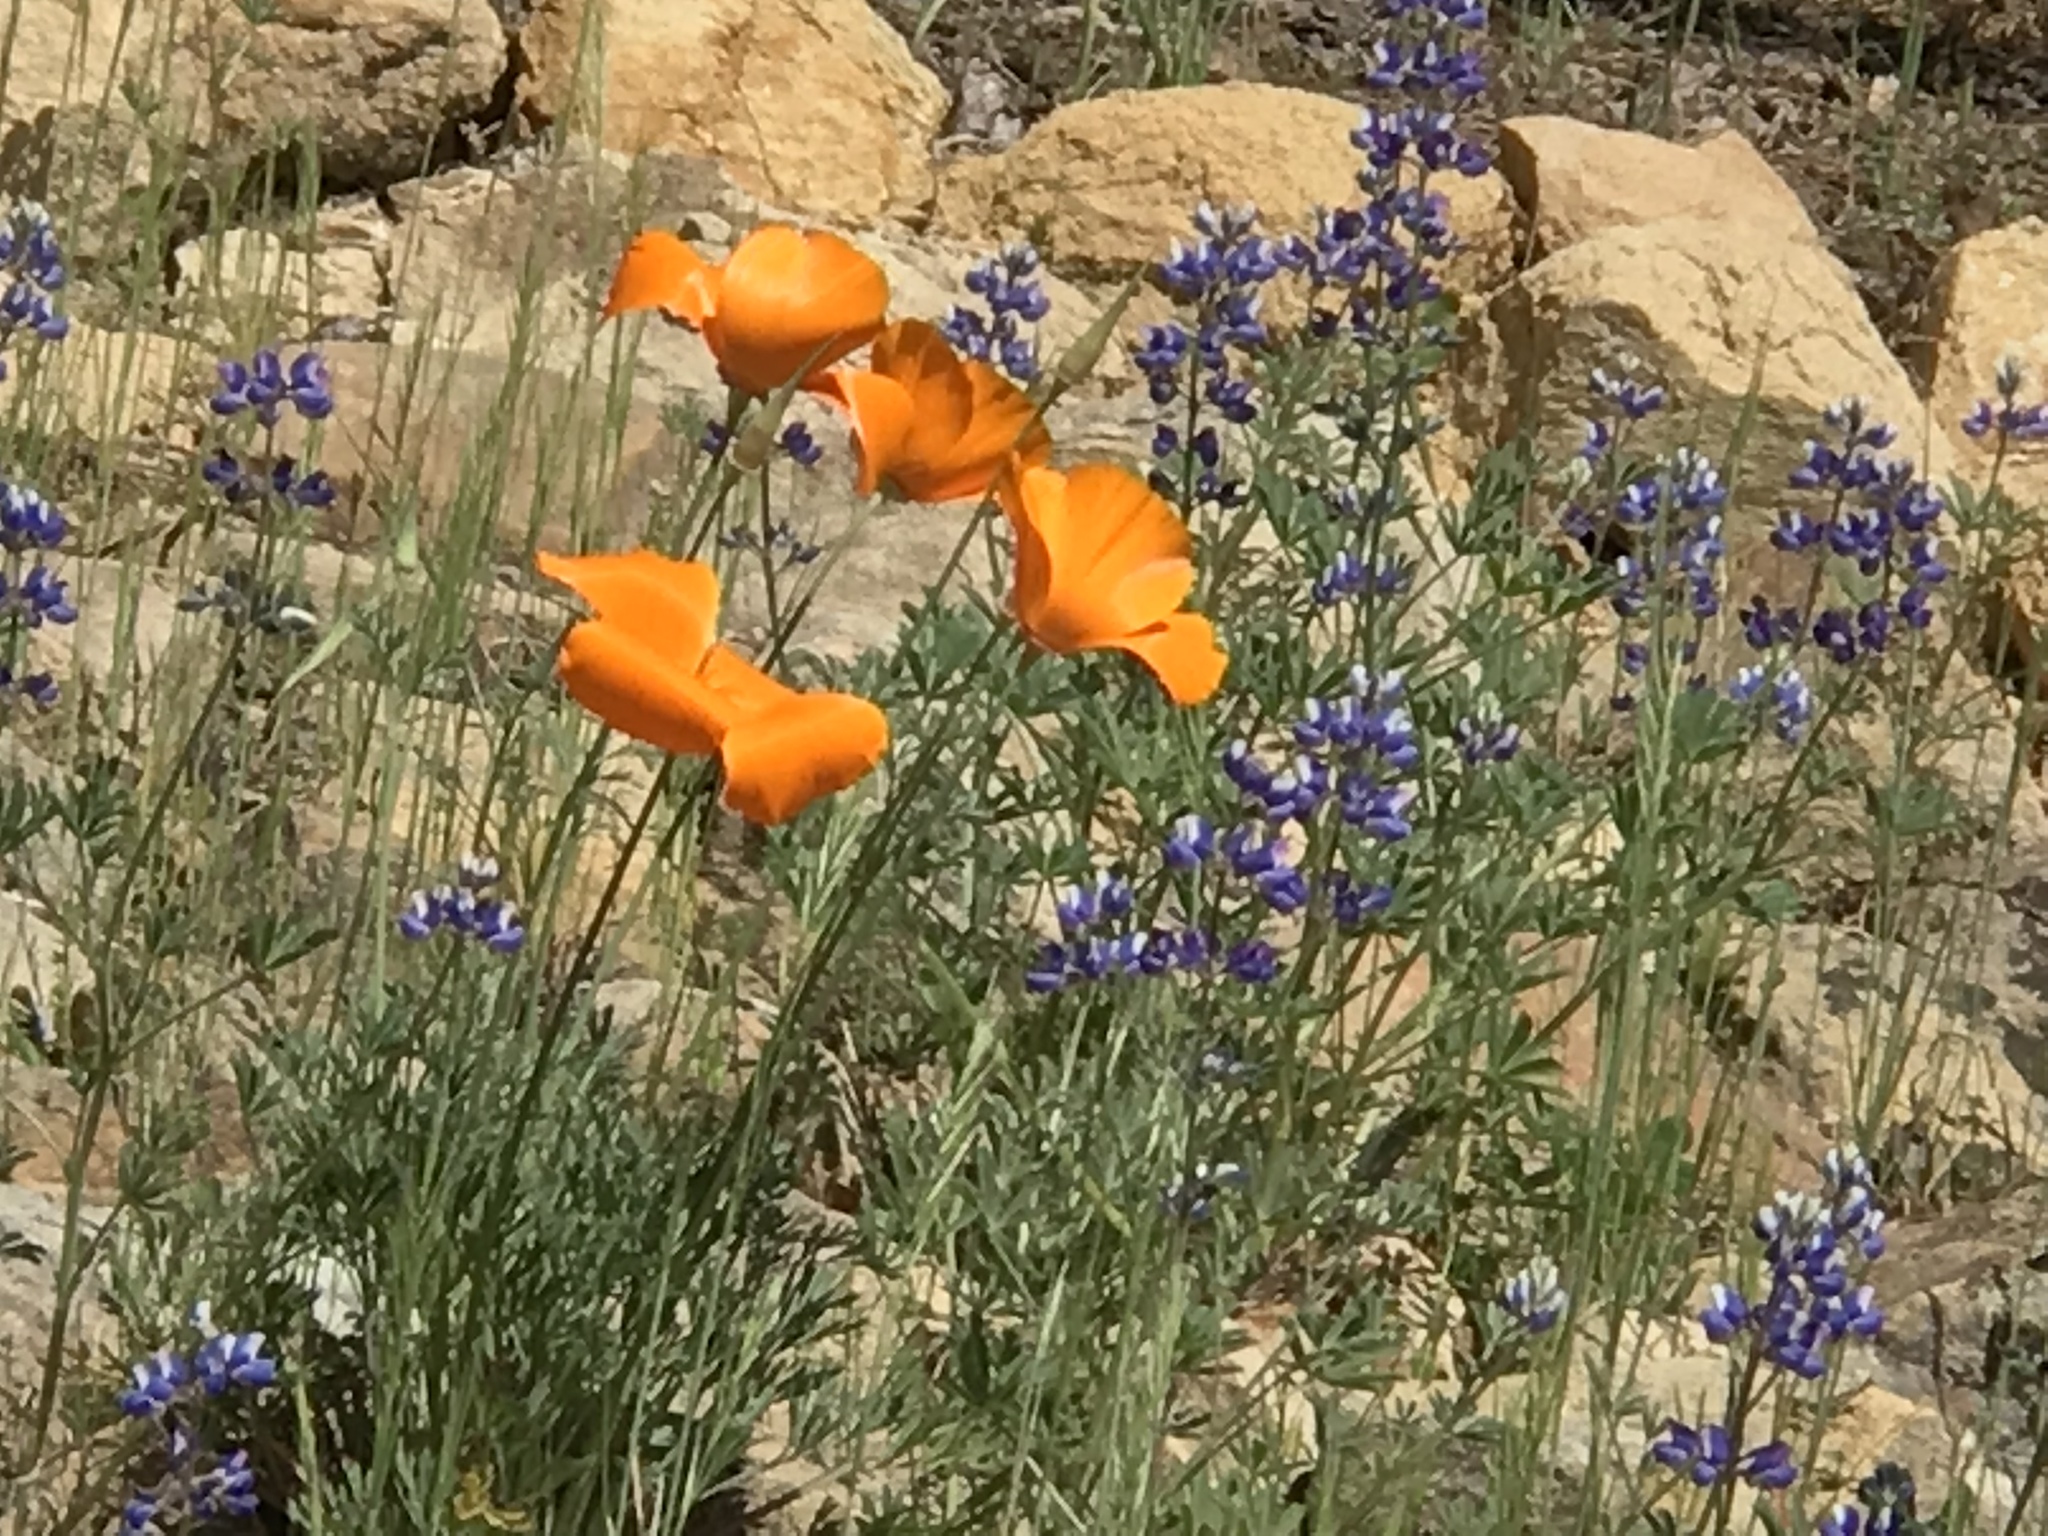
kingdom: Plantae
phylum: Tracheophyta
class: Magnoliopsida
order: Ranunculales
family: Papaveraceae
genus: Eschscholzia
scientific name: Eschscholzia californica
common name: California poppy
